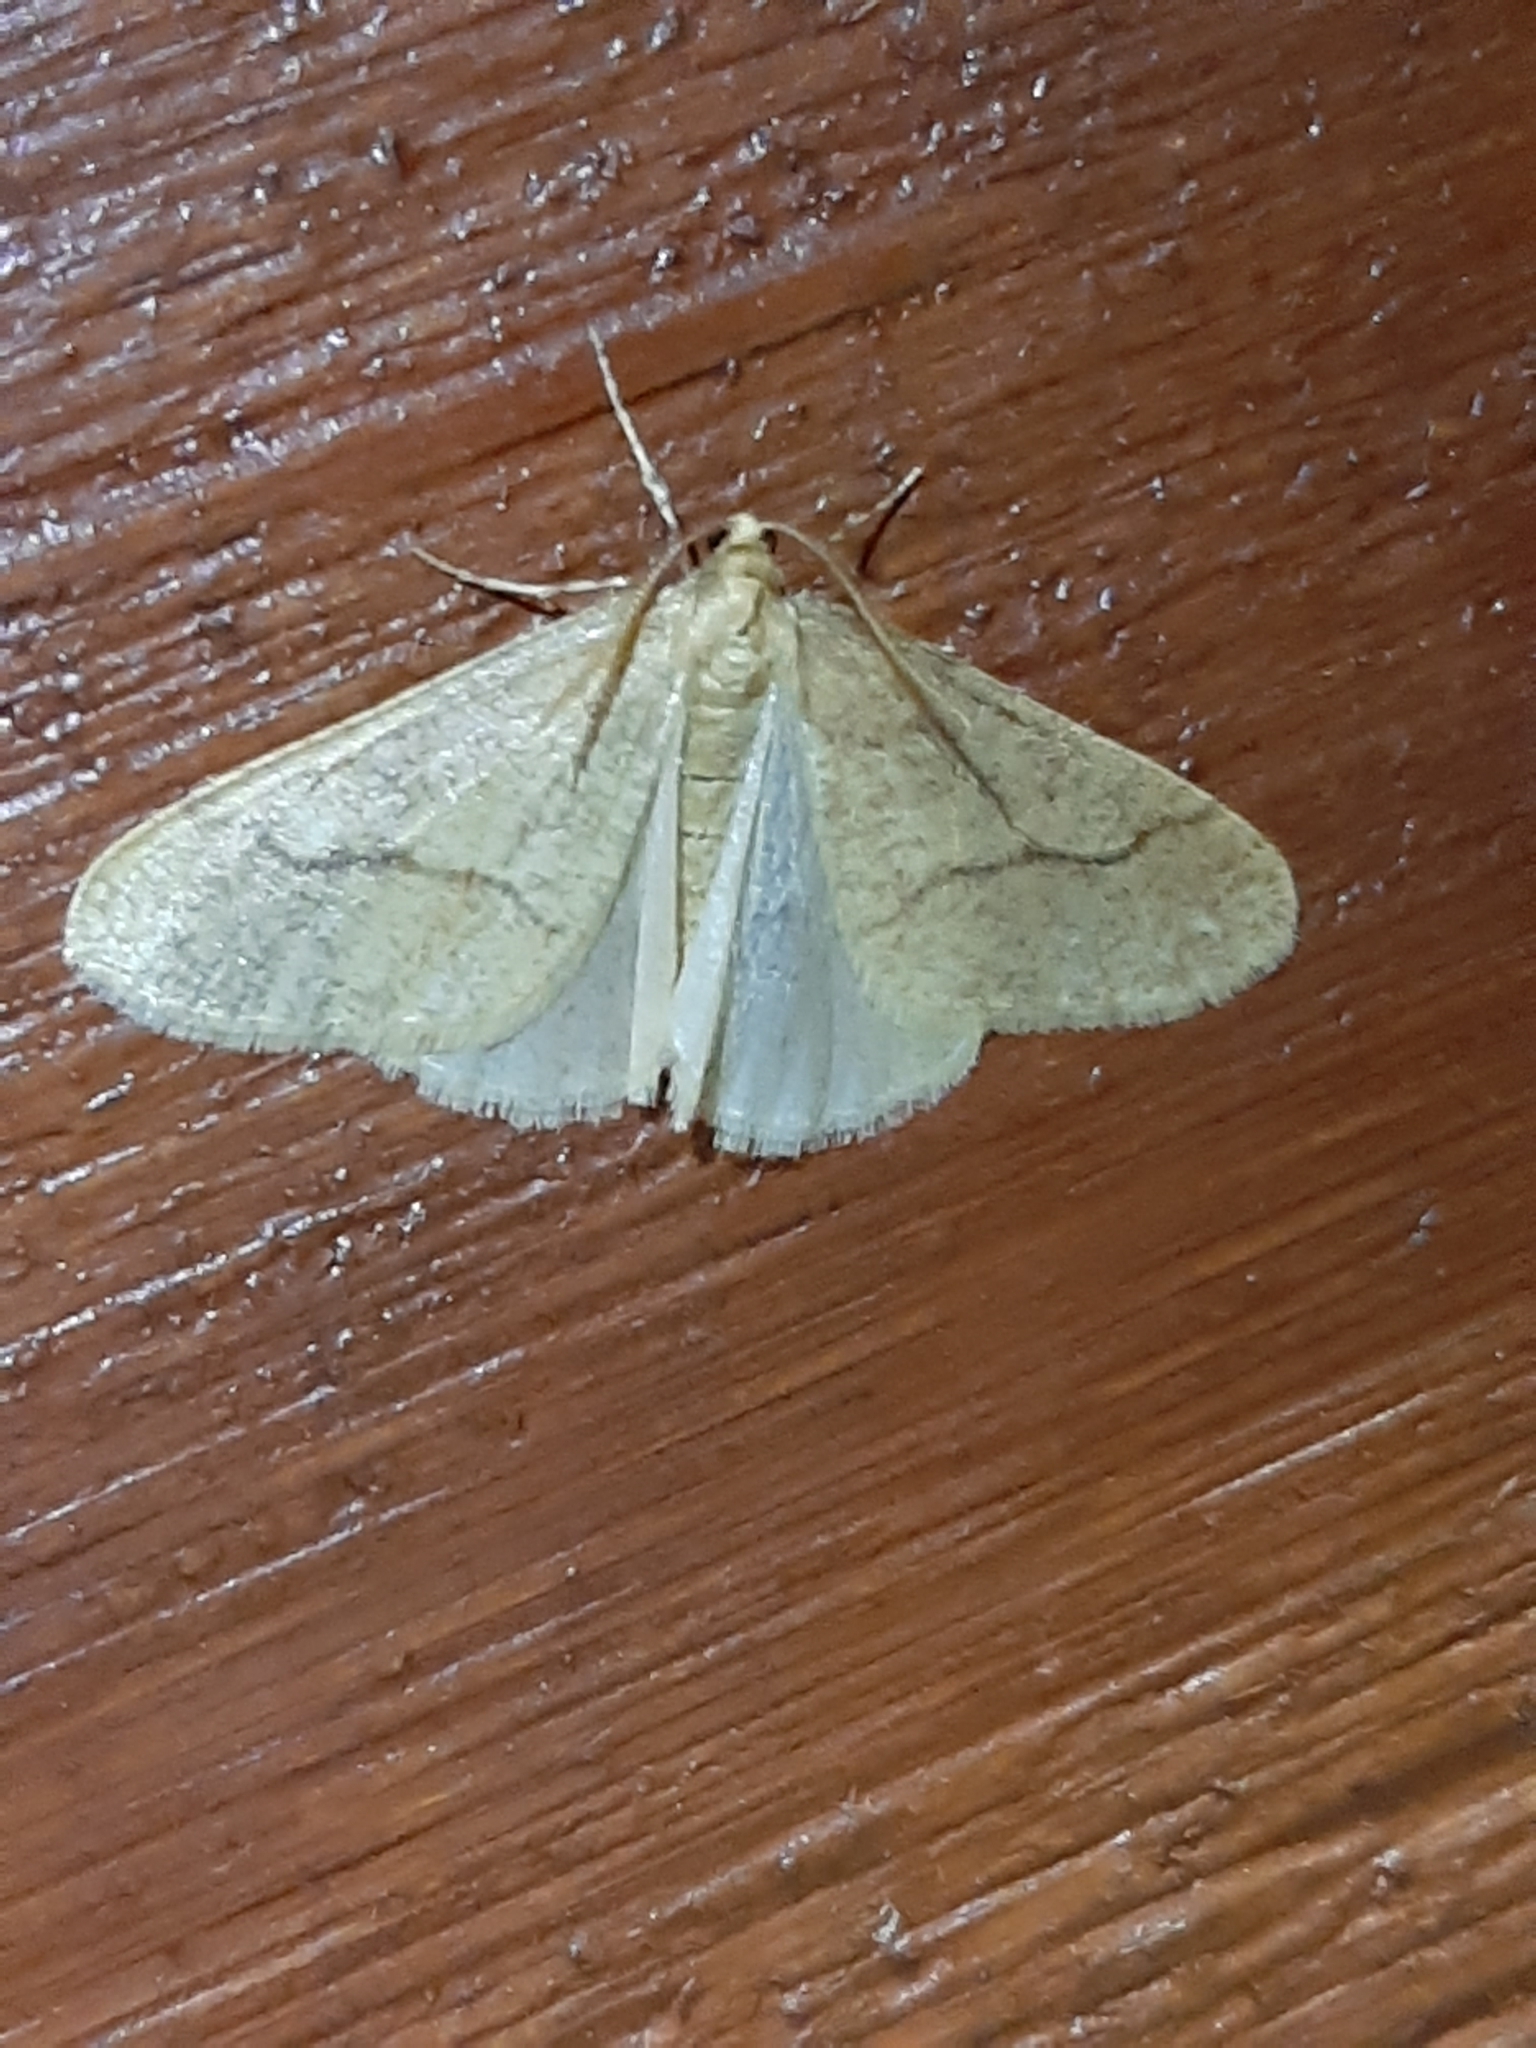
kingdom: Animalia
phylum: Arthropoda
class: Insecta
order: Lepidoptera
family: Geometridae
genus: Erannis
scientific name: Erannis tiliaria
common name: Linden looper
